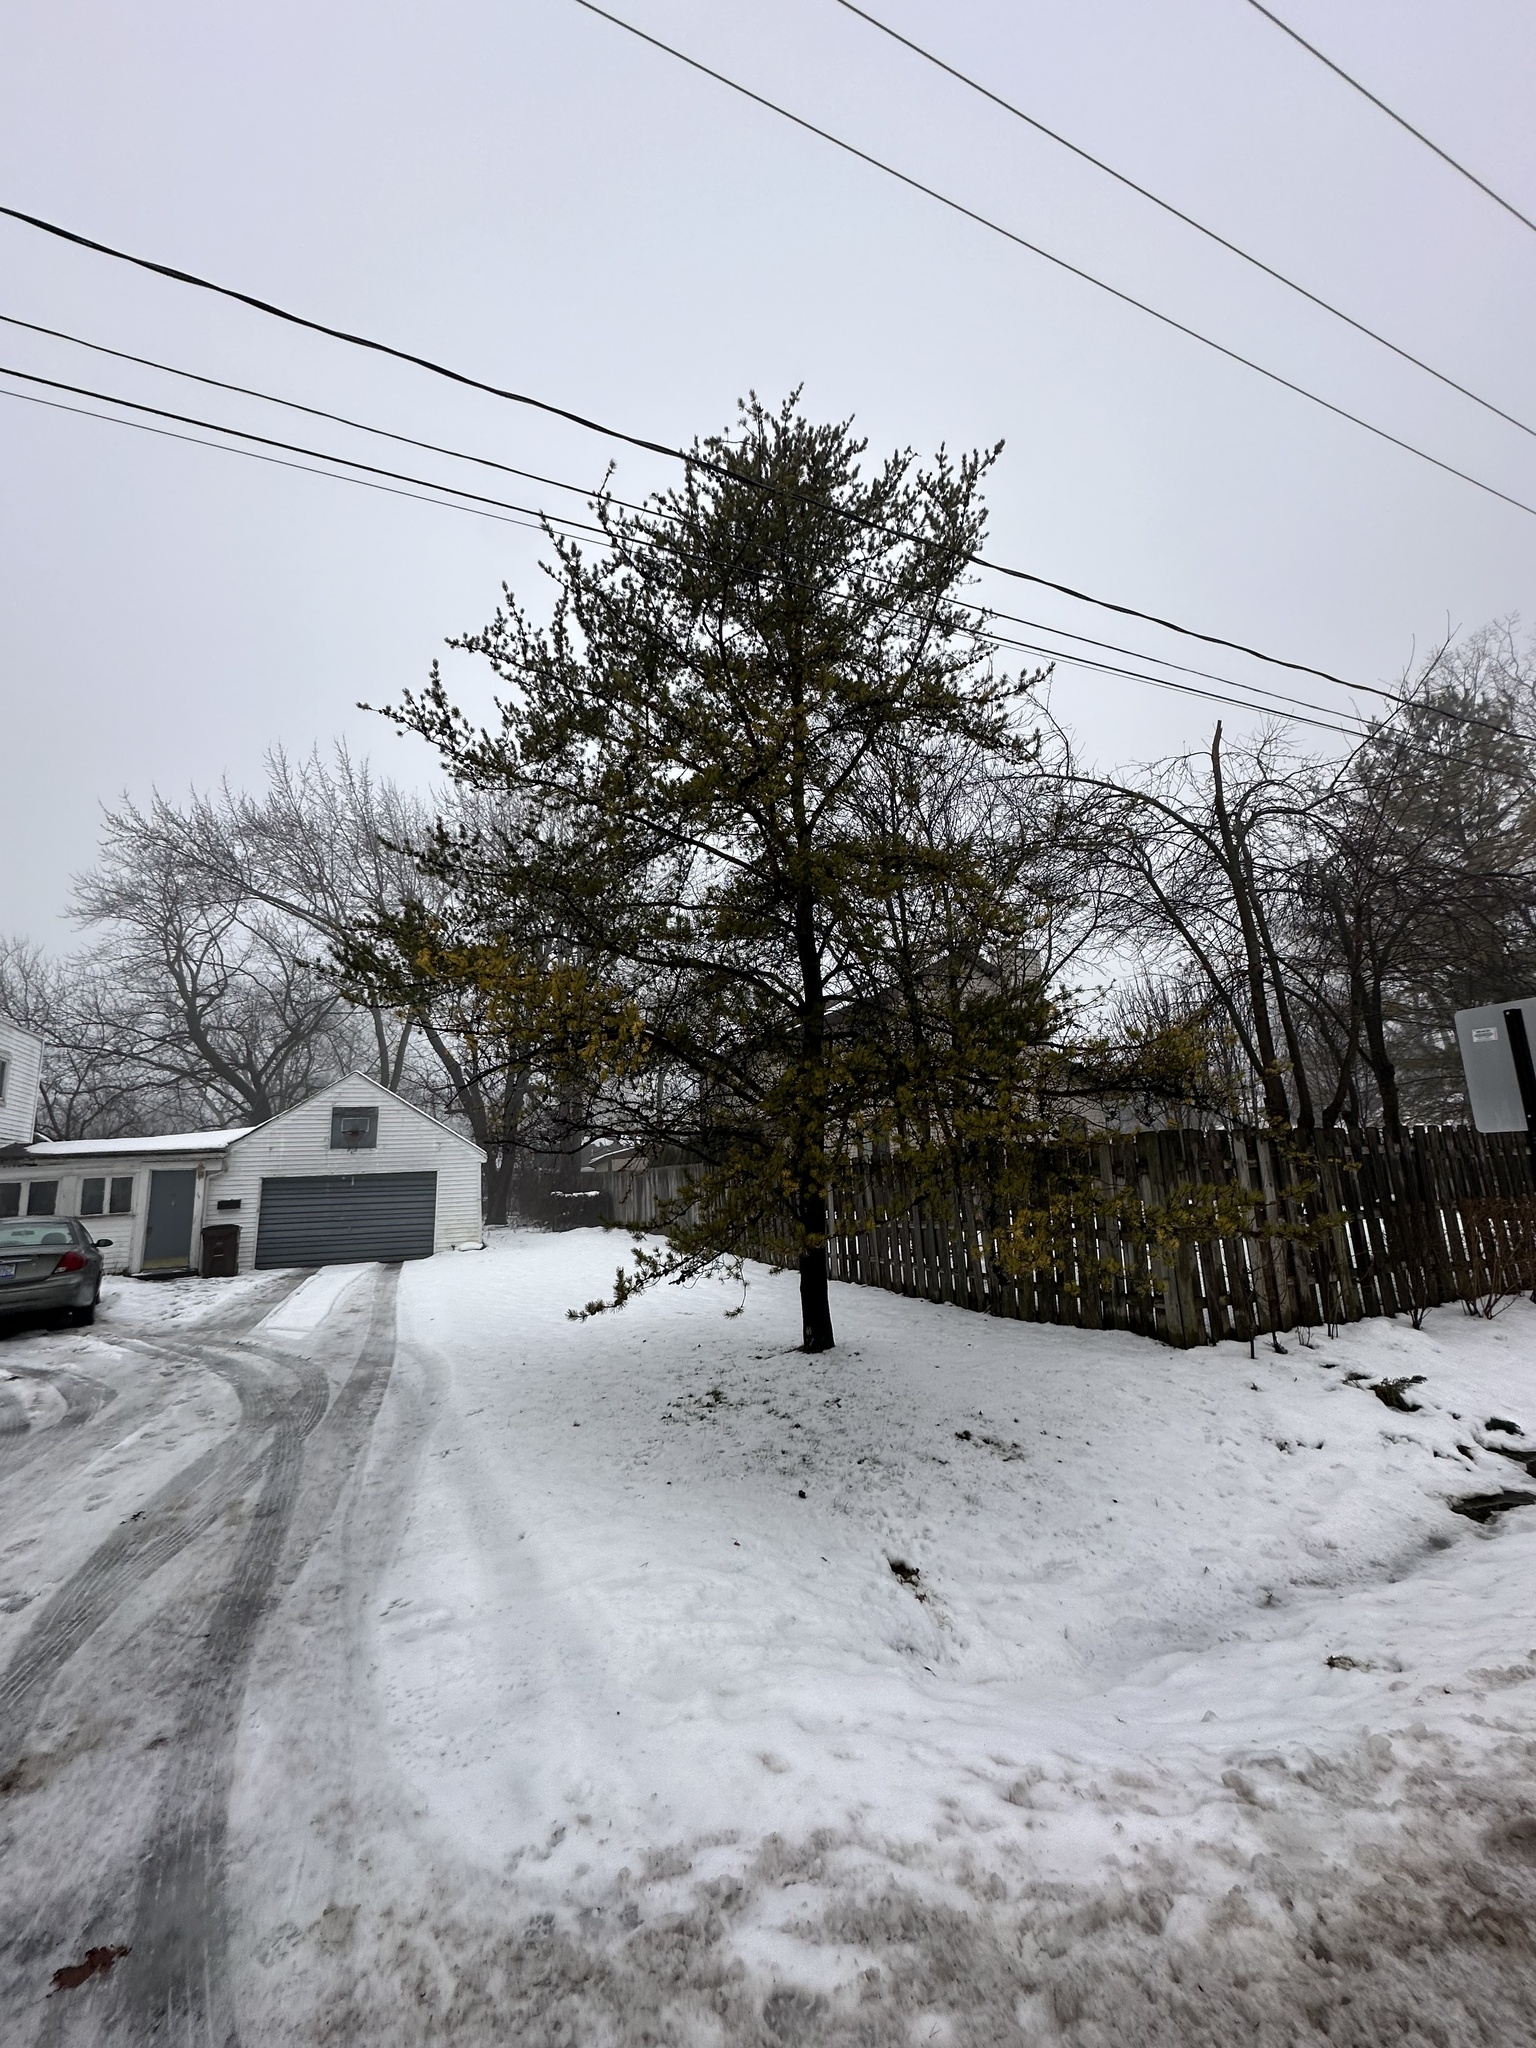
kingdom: Plantae
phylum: Tracheophyta
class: Pinopsida
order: Pinales
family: Pinaceae
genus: Pinus
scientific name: Pinus banksiana
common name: Jack pine
